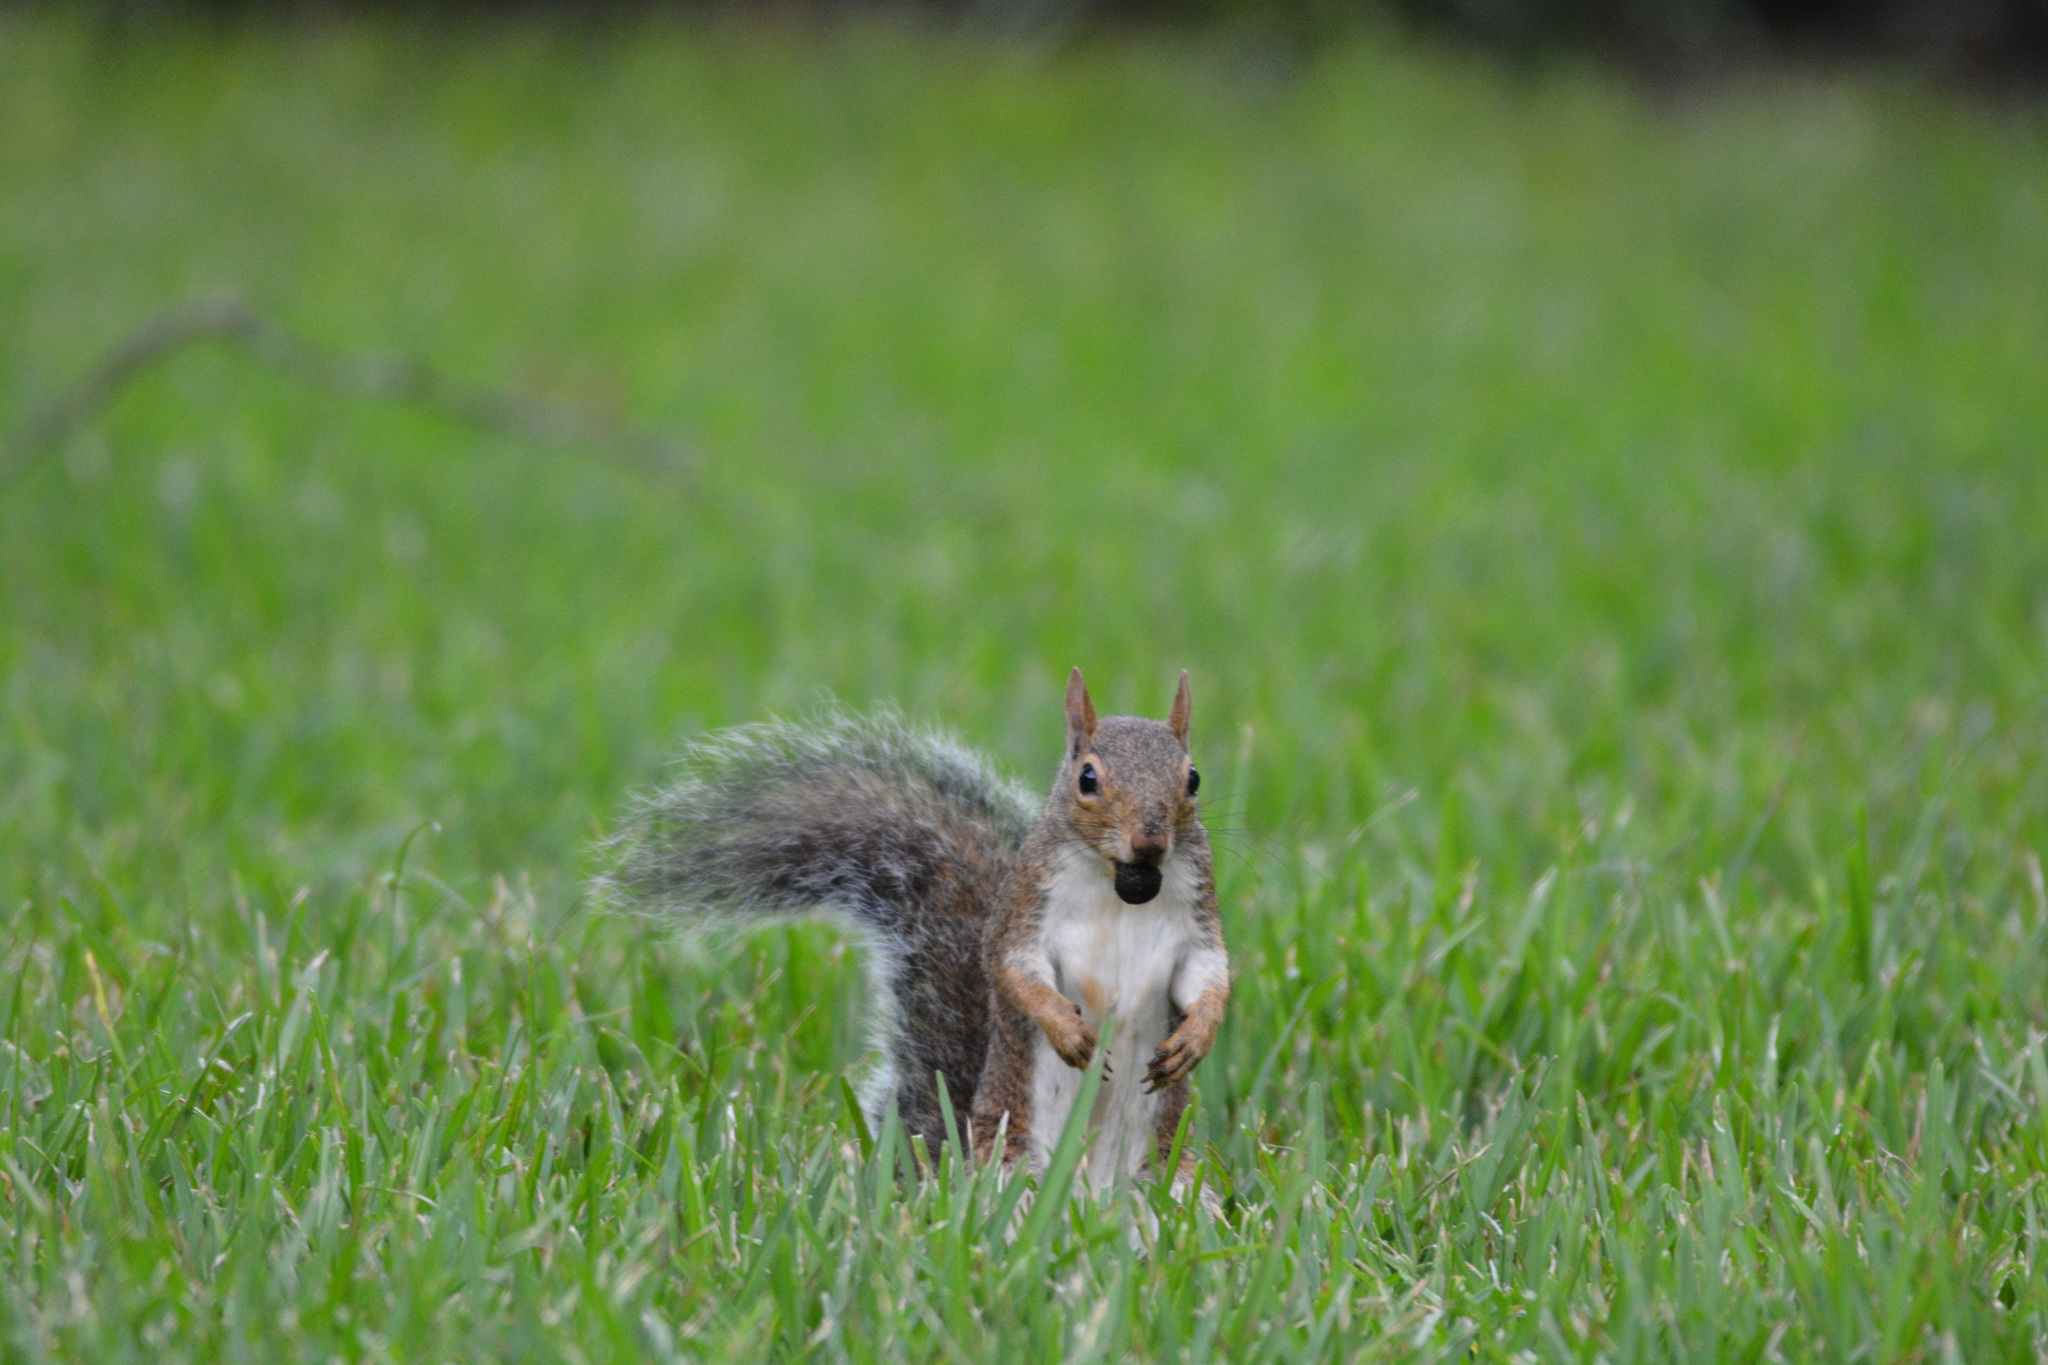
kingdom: Animalia
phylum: Chordata
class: Mammalia
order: Rodentia
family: Sciuridae
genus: Sciurus
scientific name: Sciurus carolinensis
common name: Eastern gray squirrel
